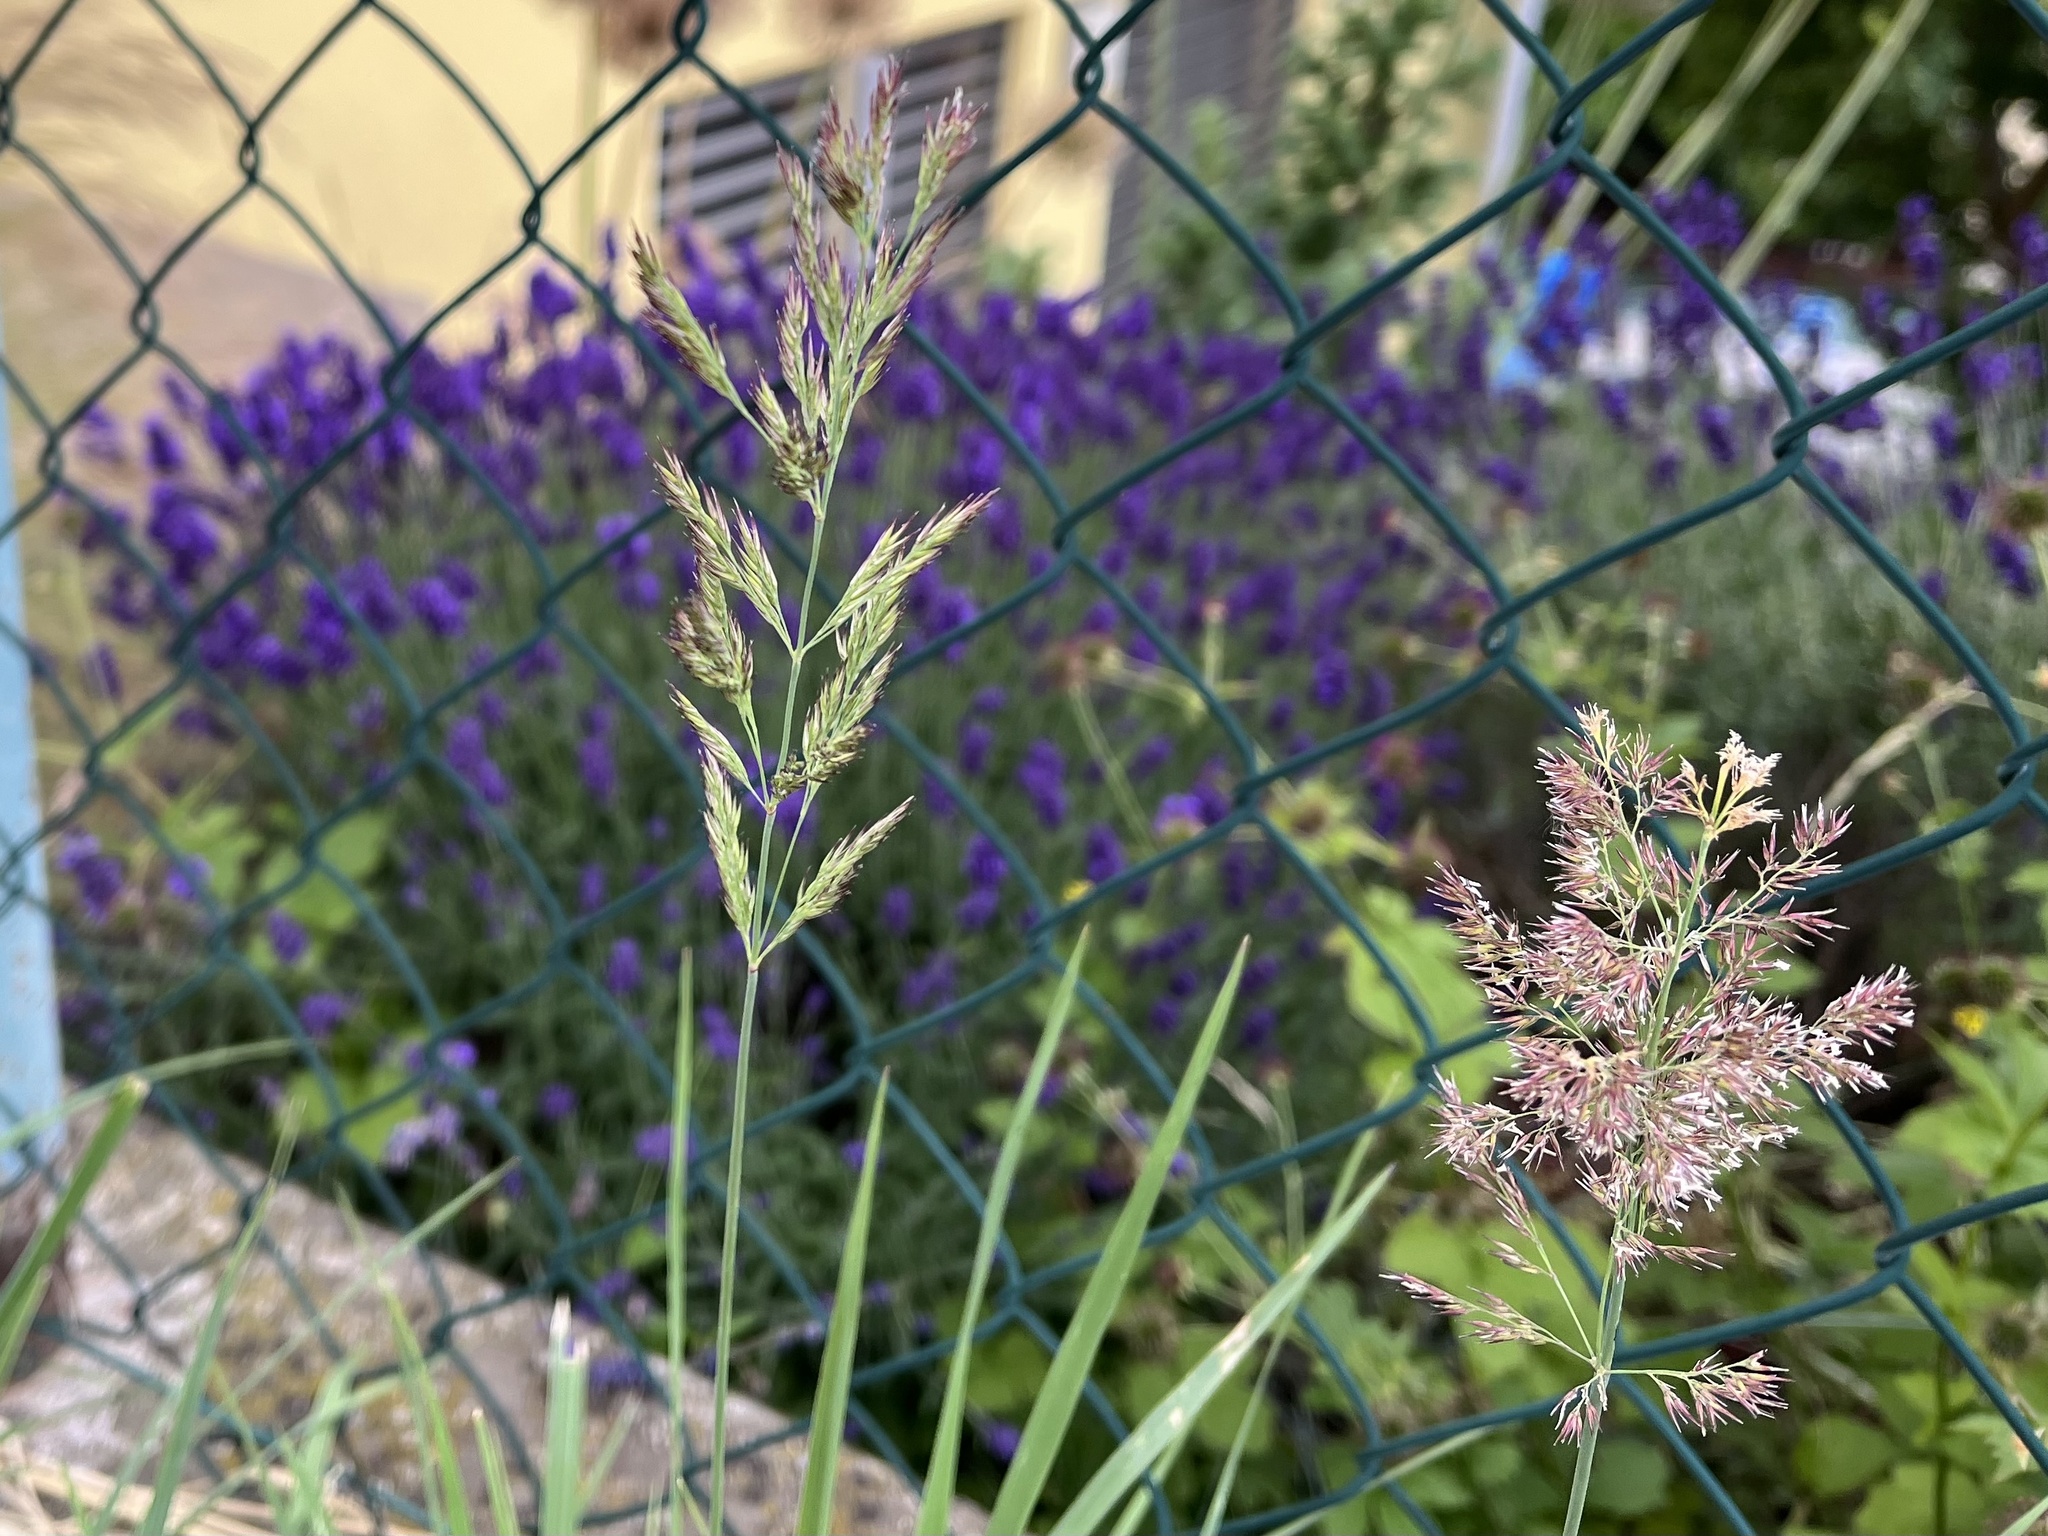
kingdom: Plantae
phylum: Tracheophyta
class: Liliopsida
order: Poales
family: Poaceae
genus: Calamagrostis
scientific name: Calamagrostis epigejos
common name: Wood small-reed
